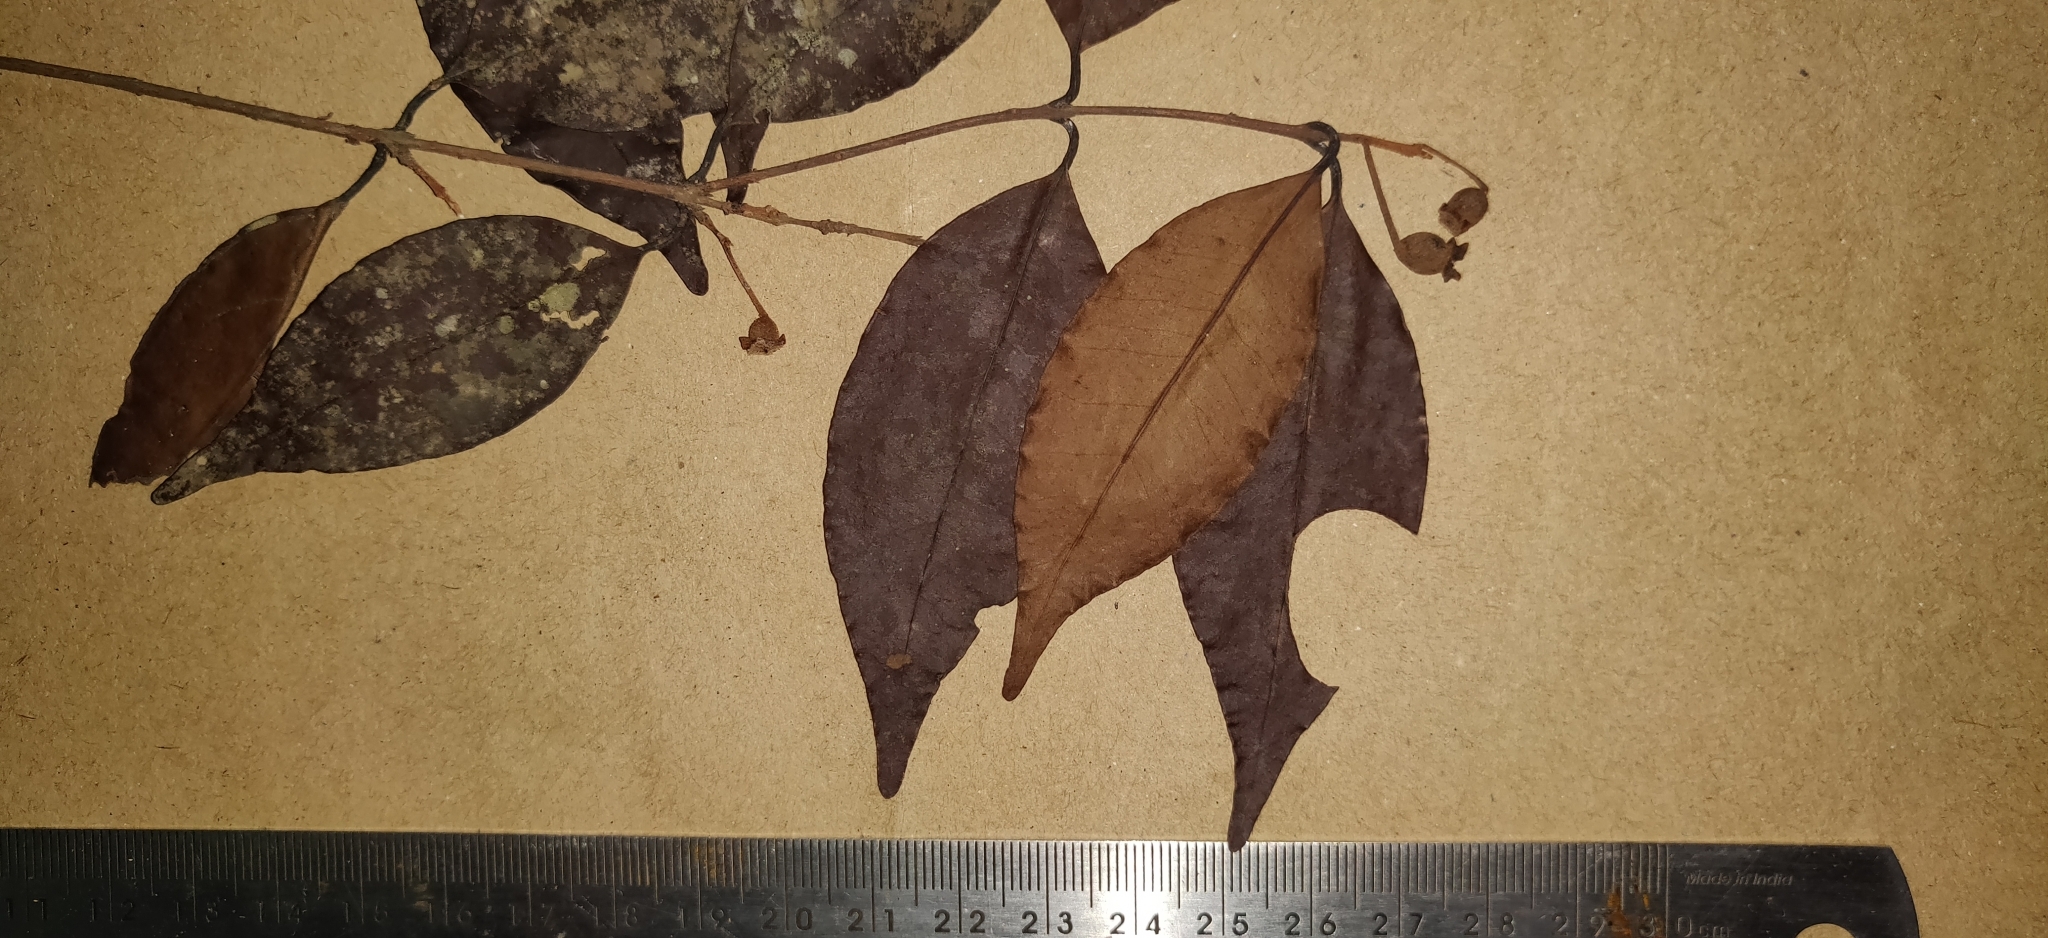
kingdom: Plantae
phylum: Tracheophyta
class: Magnoliopsida
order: Myrtales
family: Myrtaceae
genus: Syzygium
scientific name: Syzygium laetum
